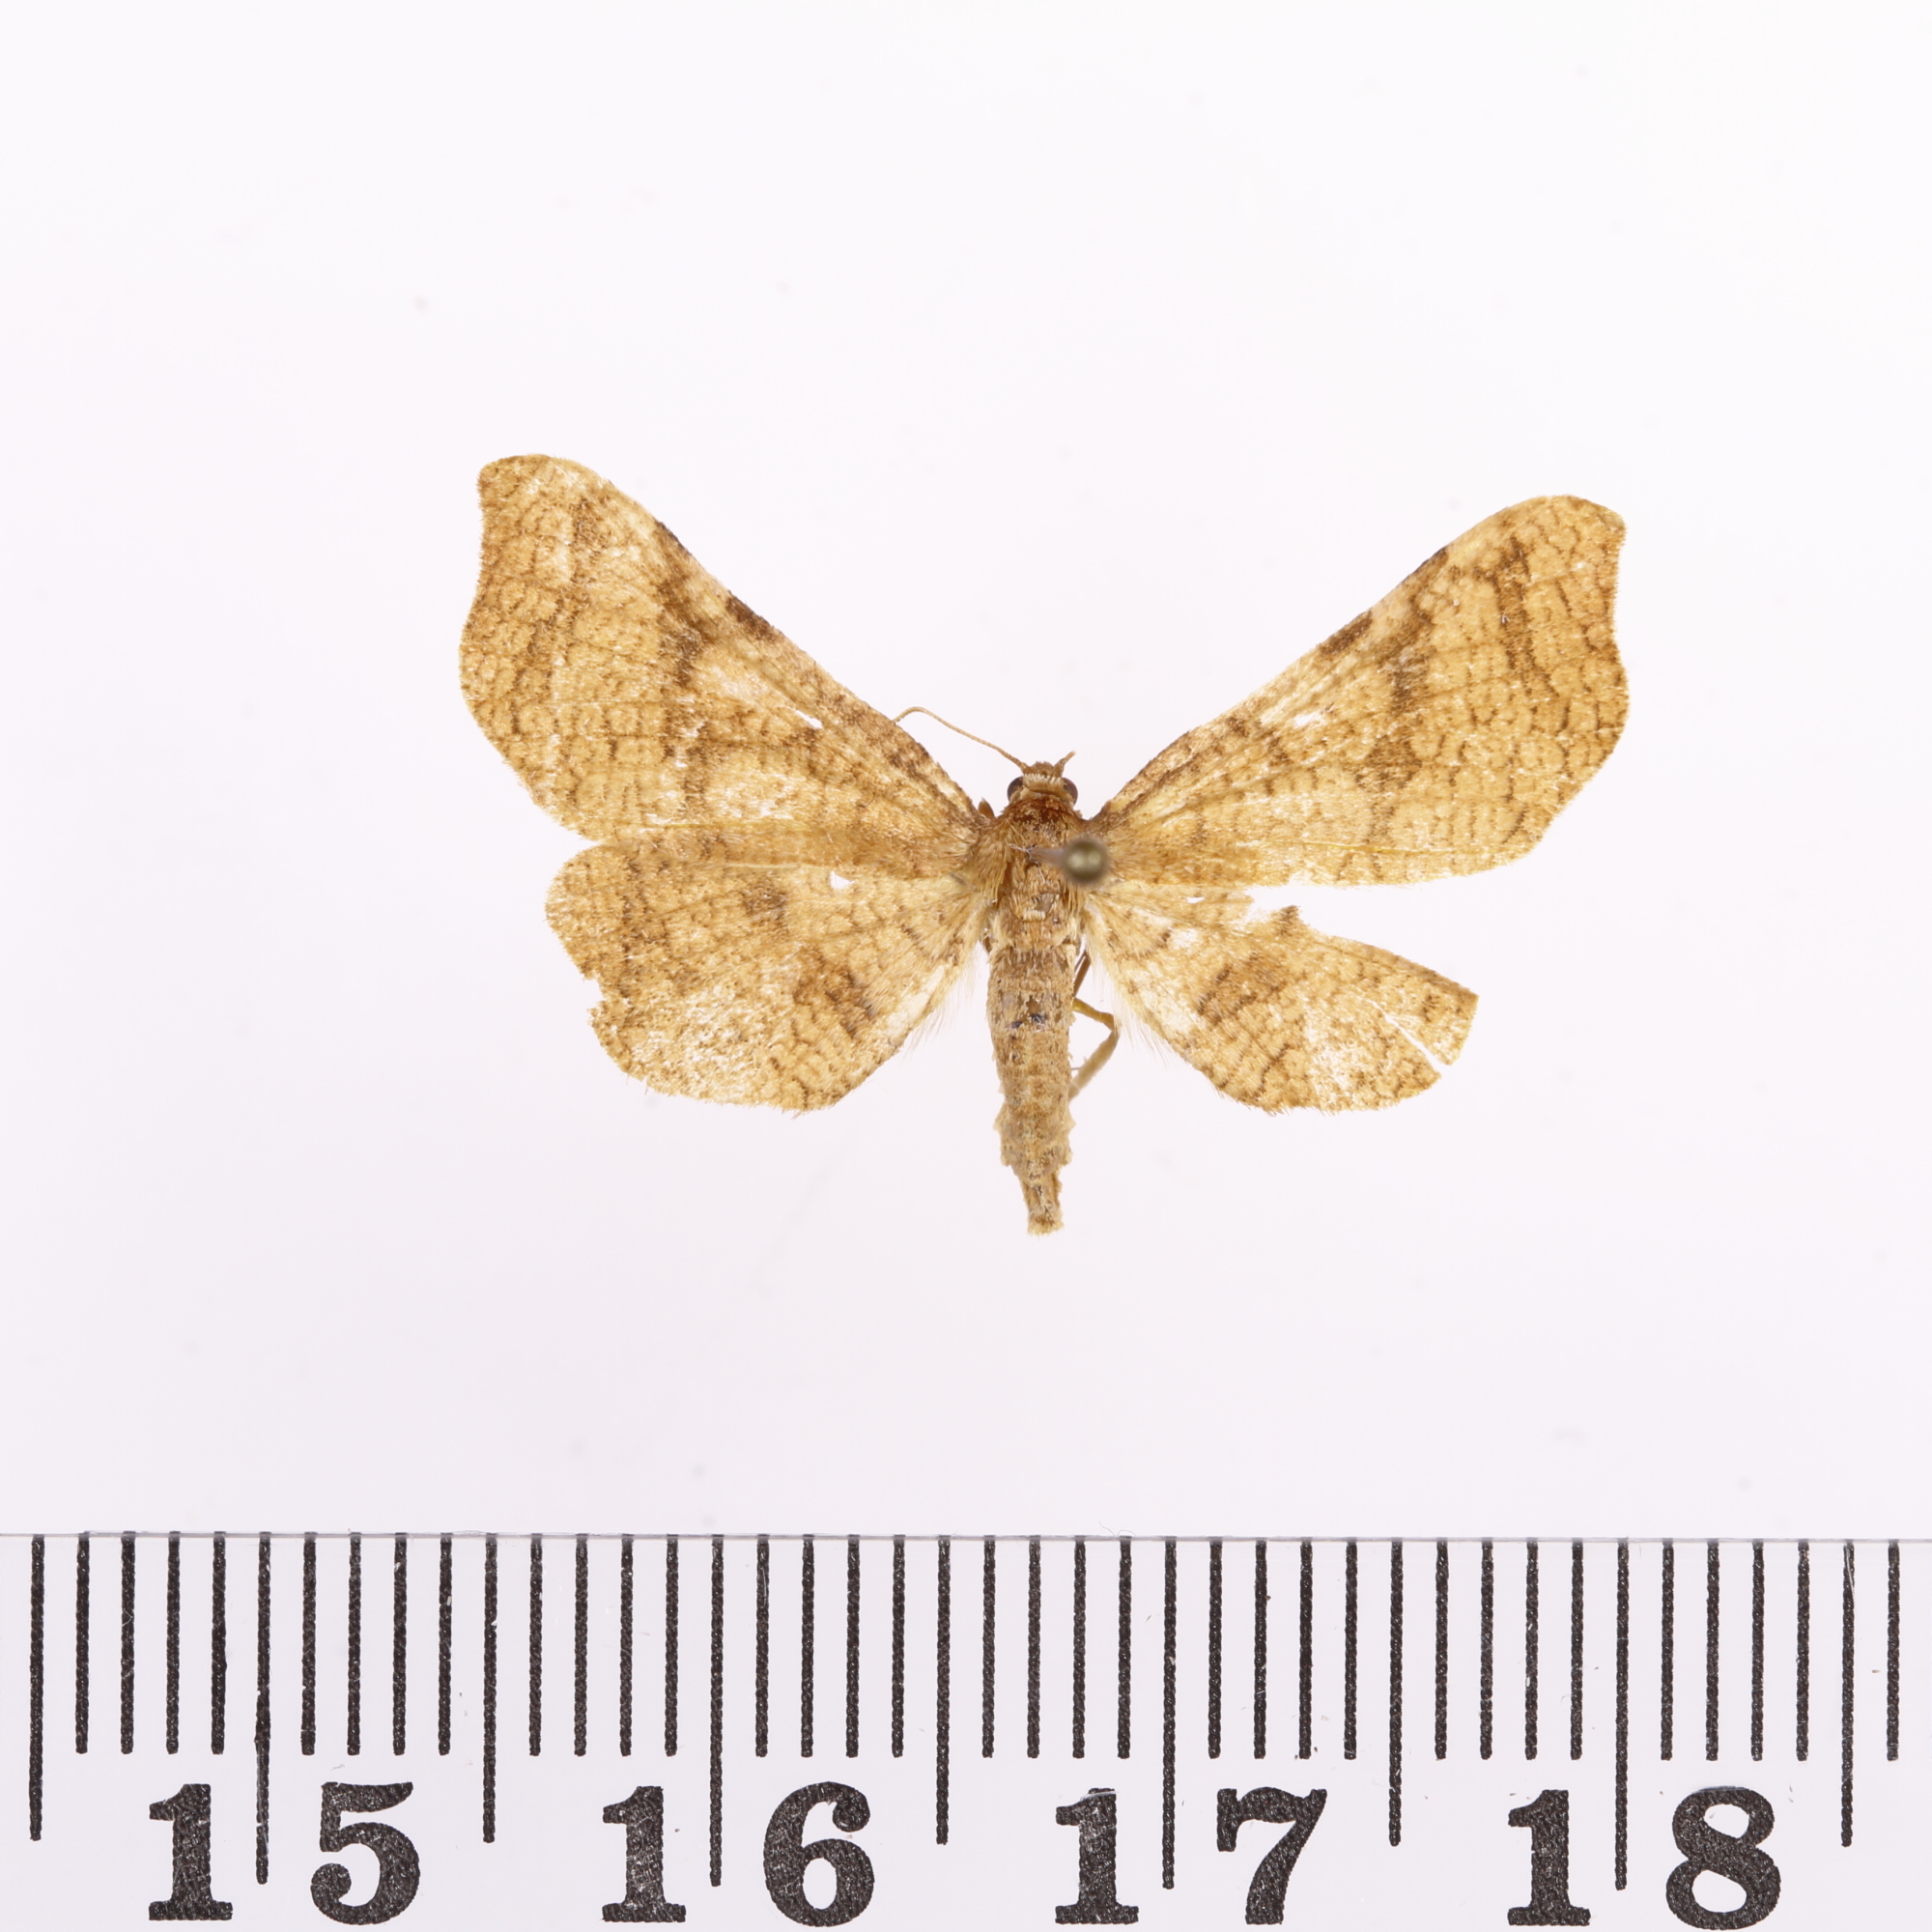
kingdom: Animalia
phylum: Arthropoda
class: Insecta
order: Lepidoptera
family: Thyrididae
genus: Morova
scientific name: Morova subfasciata
